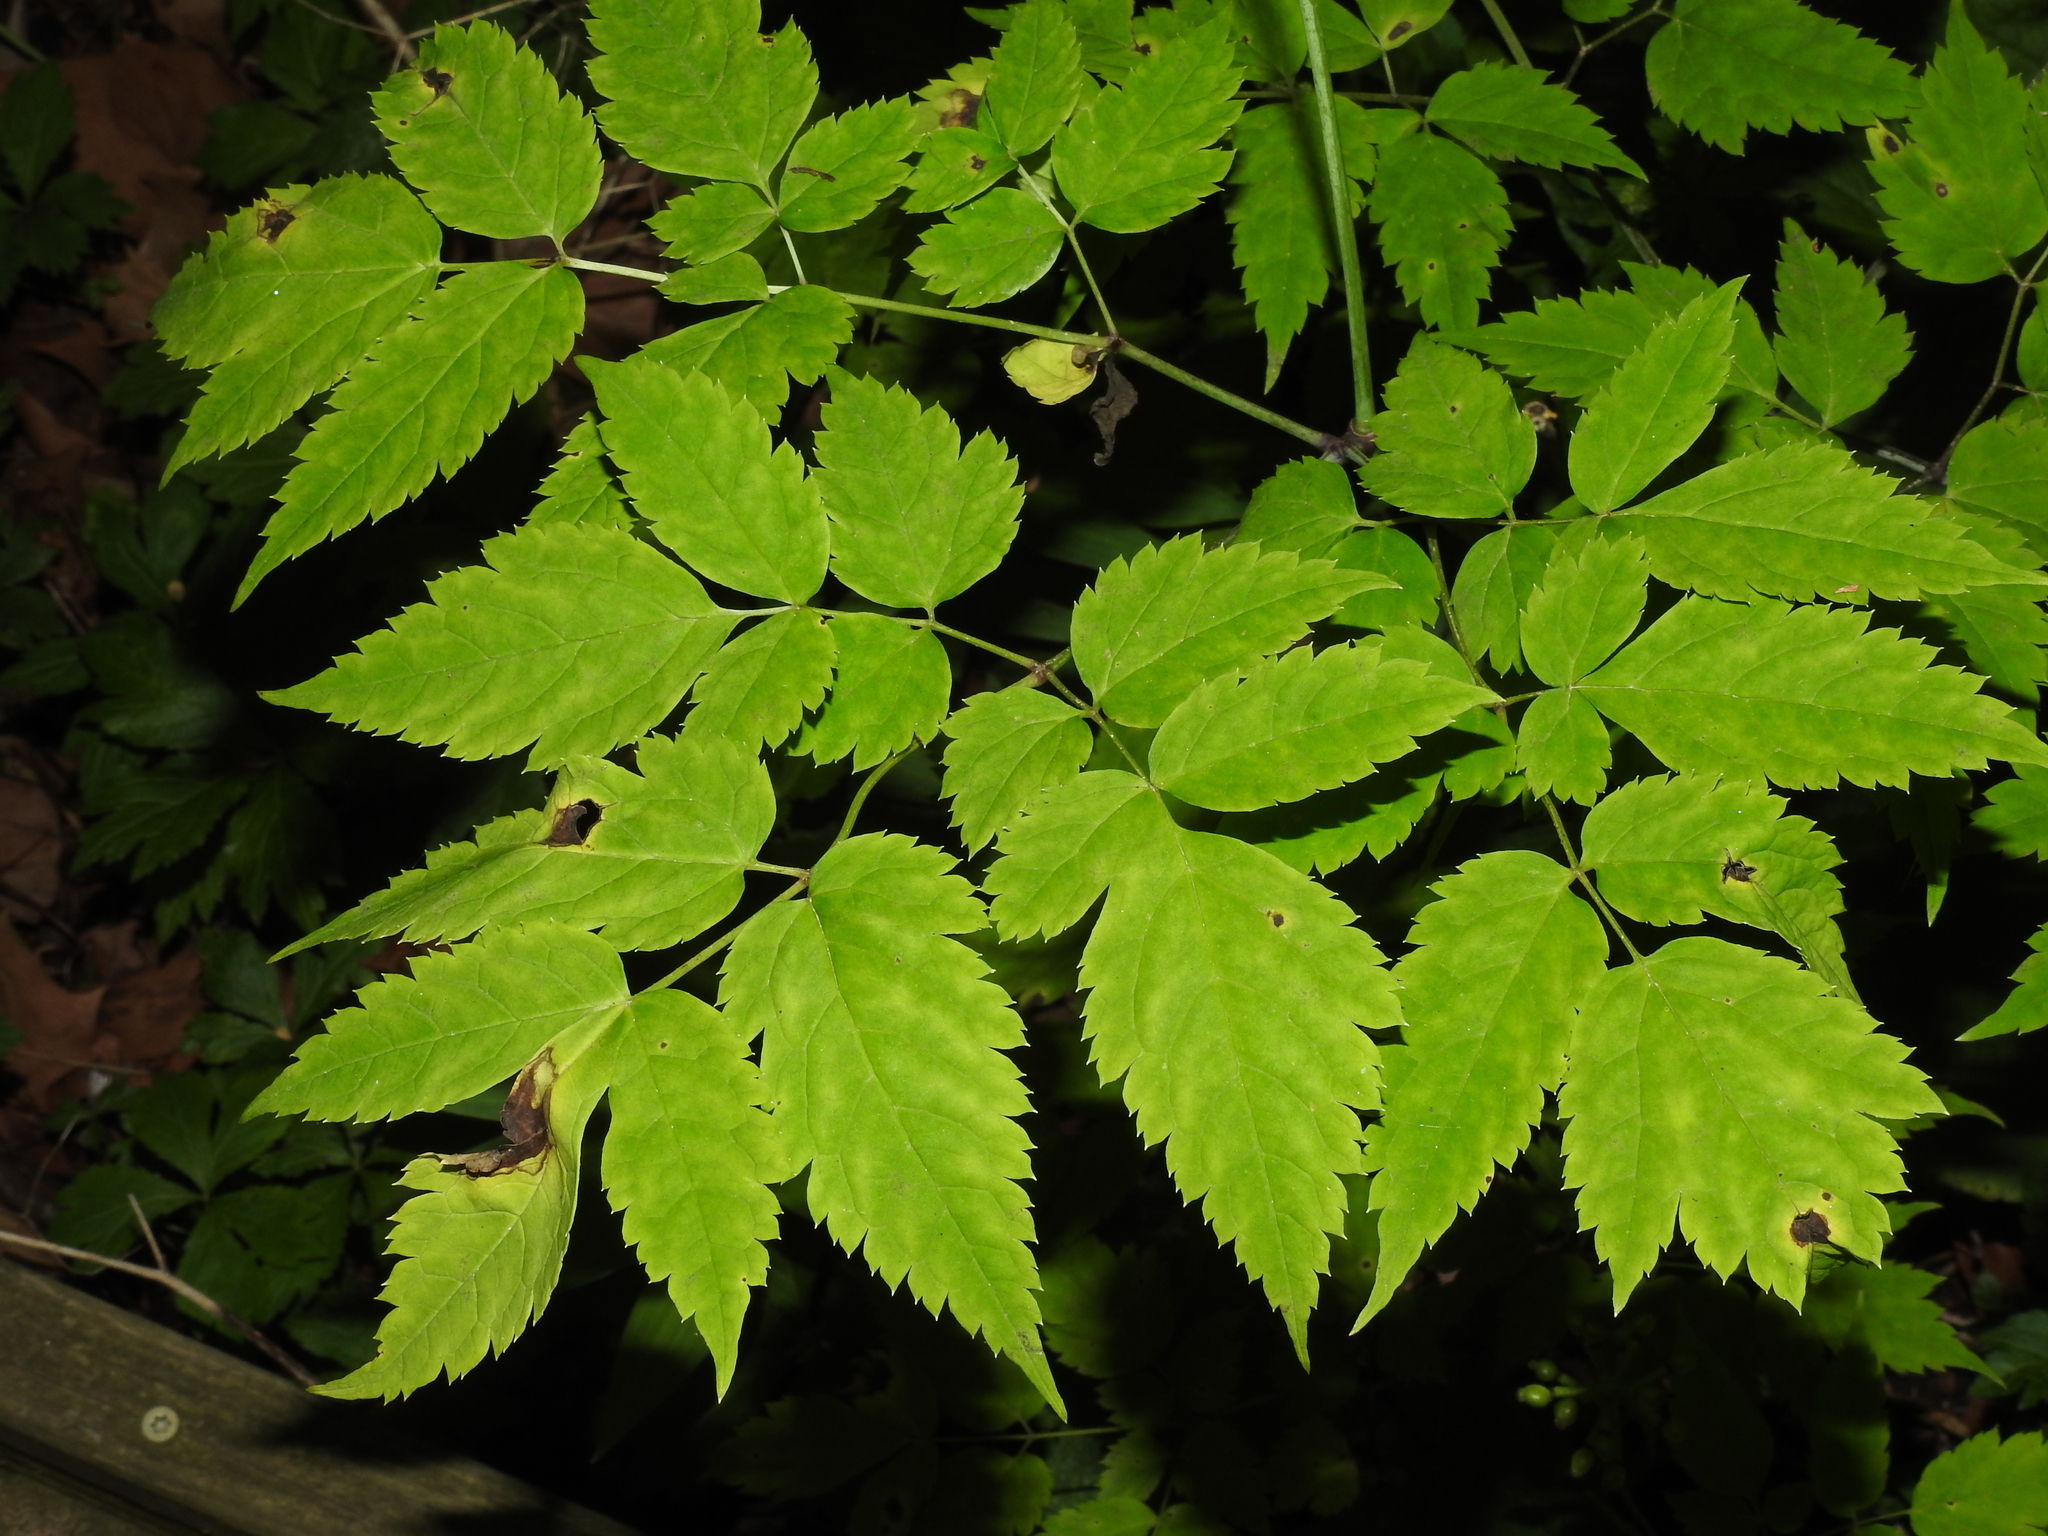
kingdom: Plantae
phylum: Tracheophyta
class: Magnoliopsida
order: Ranunculales
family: Ranunculaceae
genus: Actaea
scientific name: Actaea pachypoda
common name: Doll's-eyes
